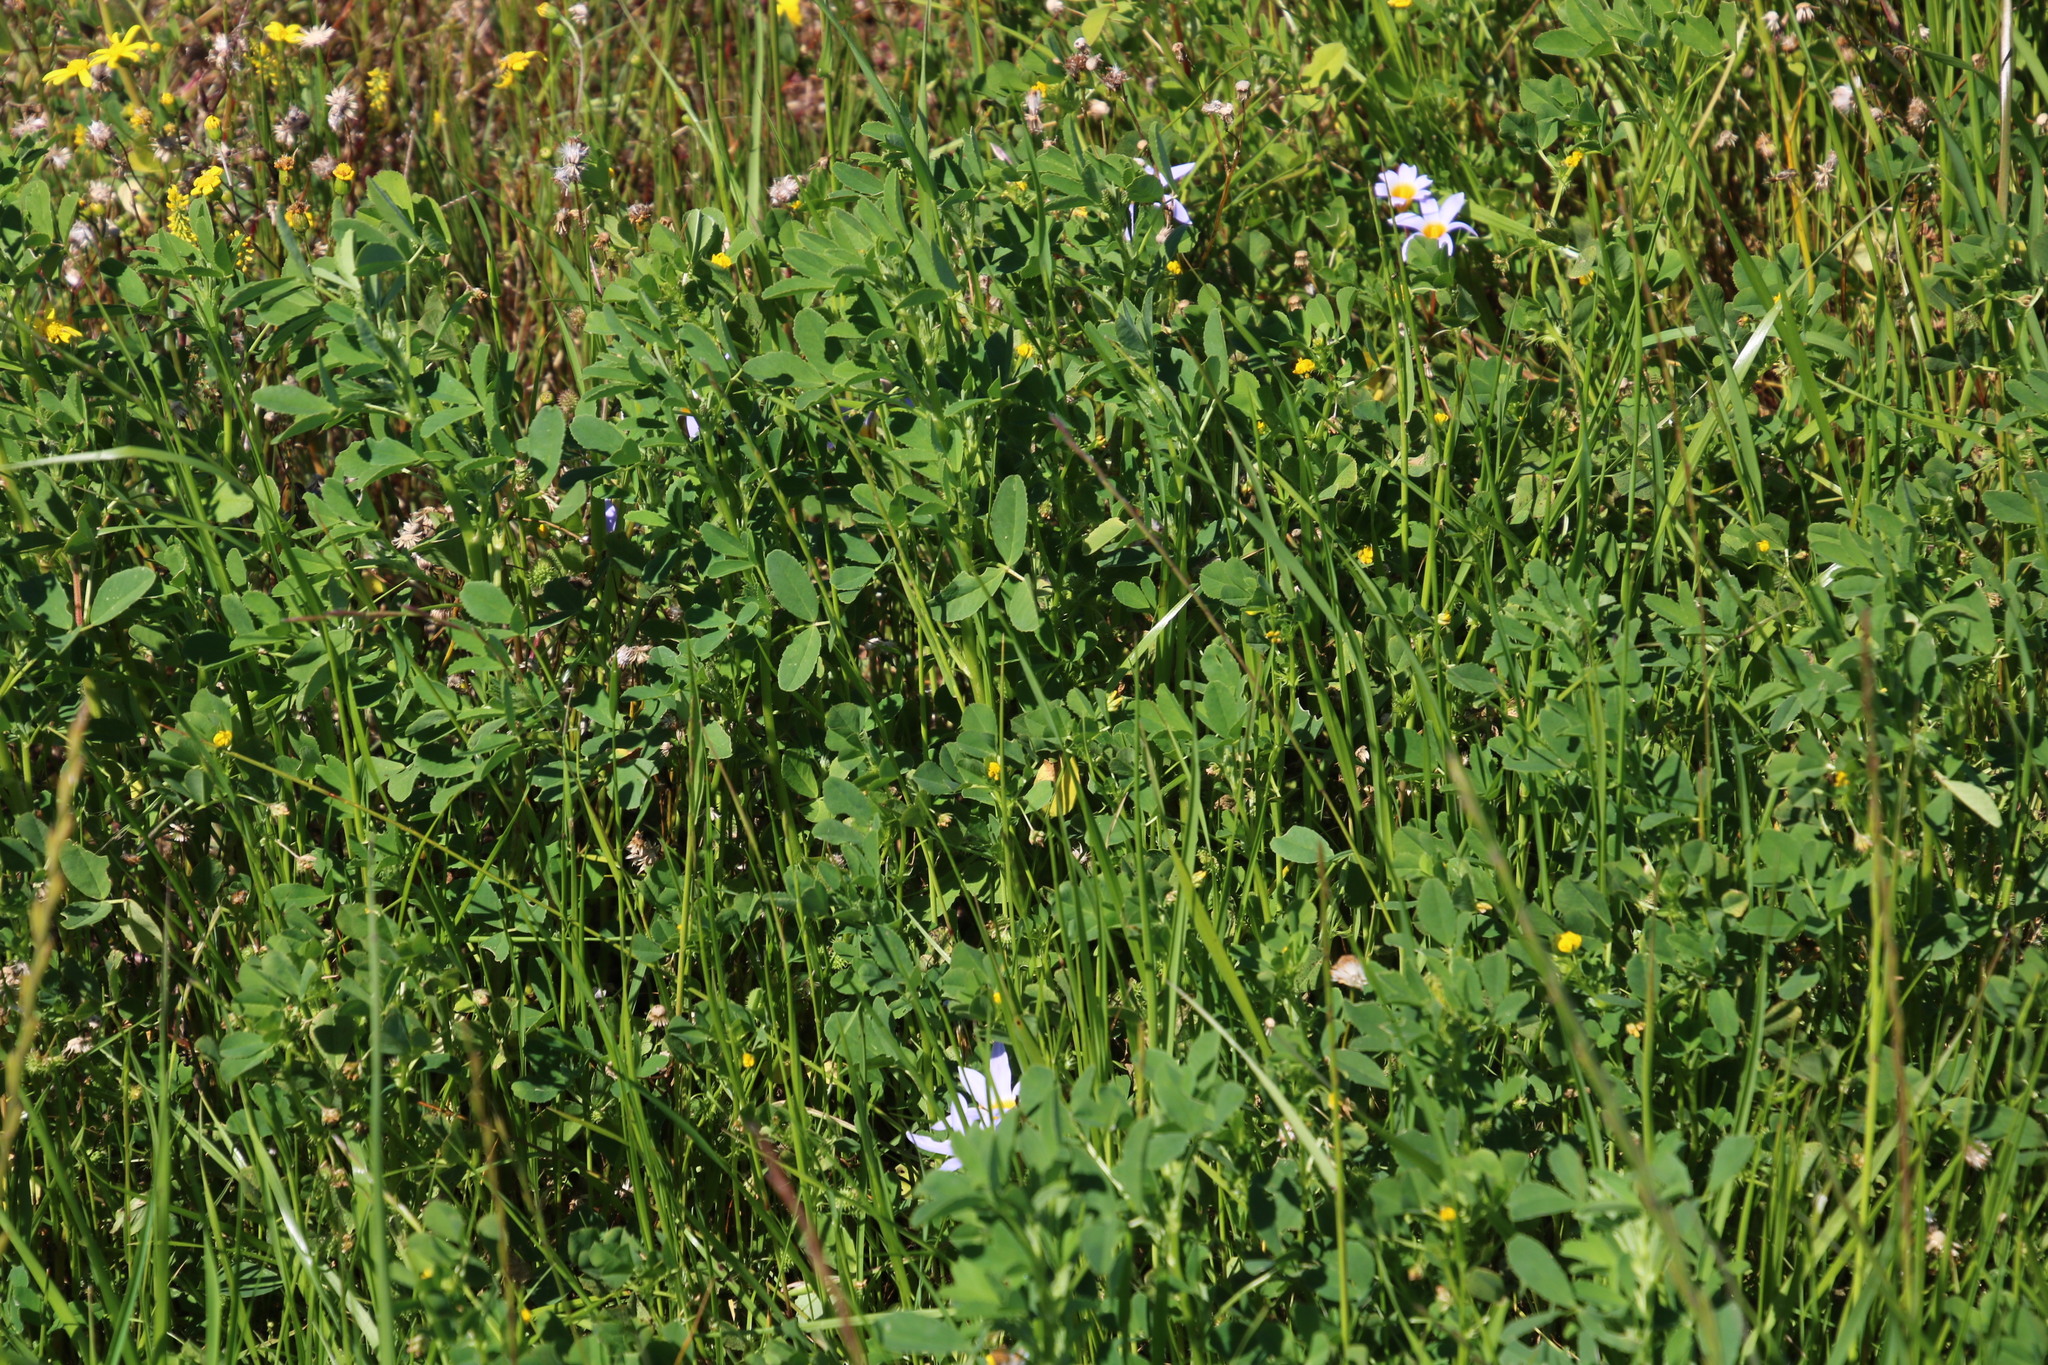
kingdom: Plantae
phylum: Tracheophyta
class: Magnoliopsida
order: Fabales
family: Fabaceae
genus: Medicago
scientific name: Medicago polymorpha
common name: Burclover
